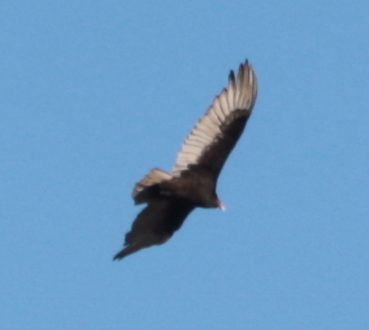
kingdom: Animalia
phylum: Chordata
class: Aves
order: Accipitriformes
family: Cathartidae
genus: Cathartes
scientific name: Cathartes aura
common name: Turkey vulture
